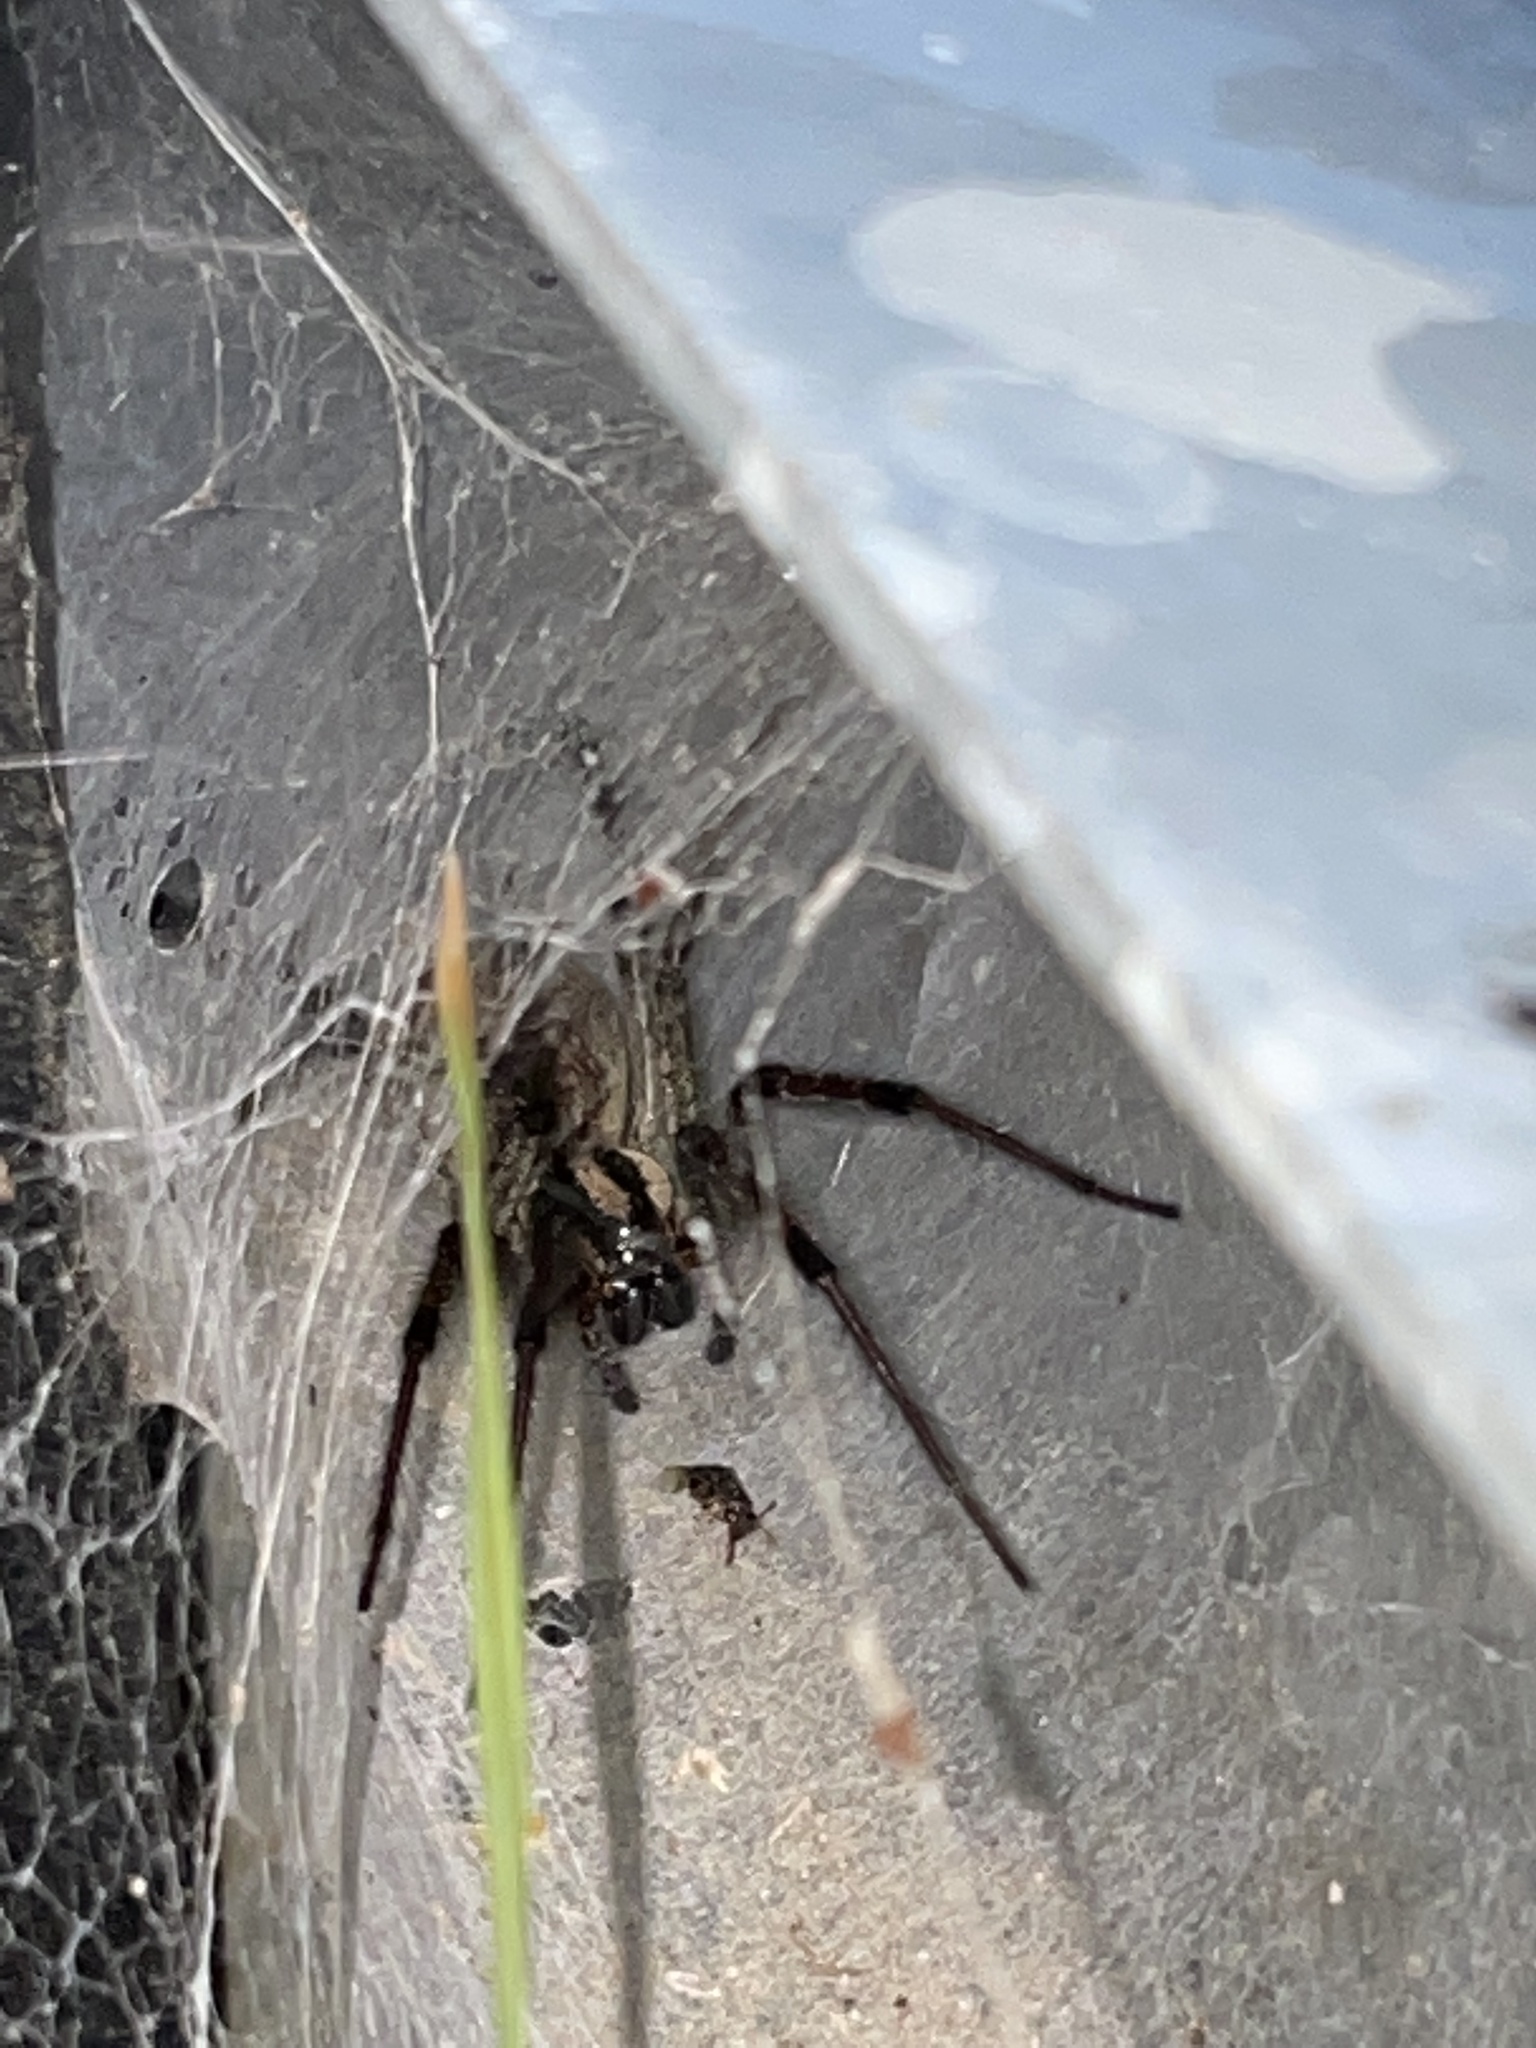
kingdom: Animalia
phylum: Arthropoda
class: Arachnida
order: Araneae
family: Agelenidae
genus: Agelenopsis
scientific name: Agelenopsis
